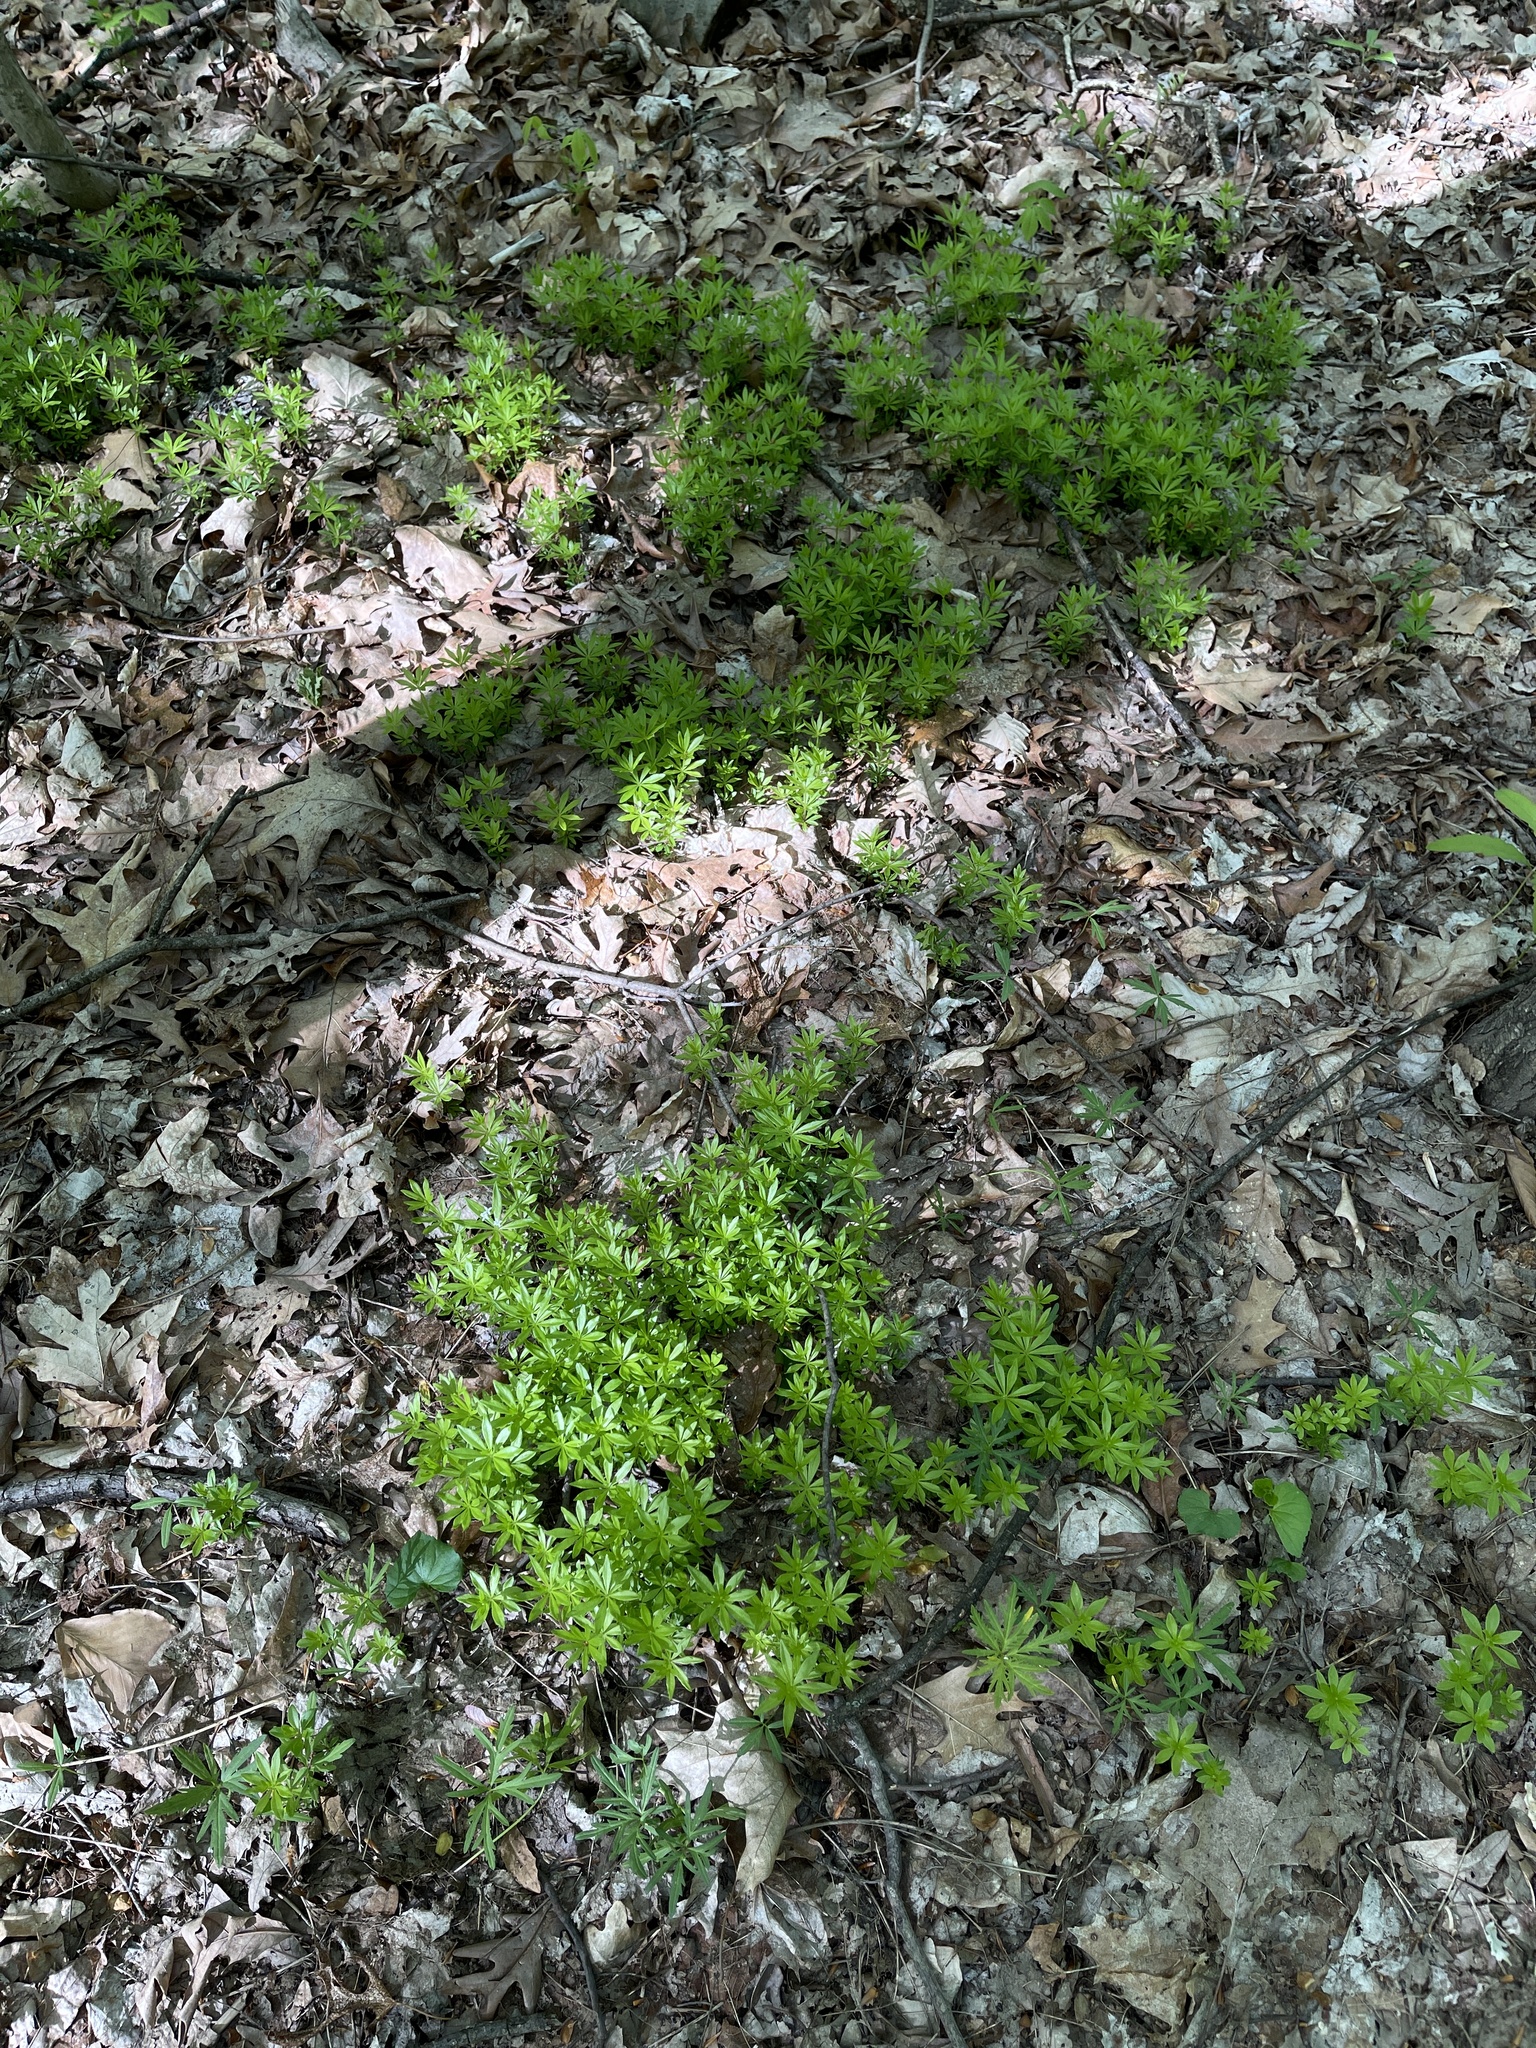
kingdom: Plantae
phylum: Tracheophyta
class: Magnoliopsida
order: Gentianales
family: Rubiaceae
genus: Galium
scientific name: Galium odoratum
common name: Sweet woodruff
